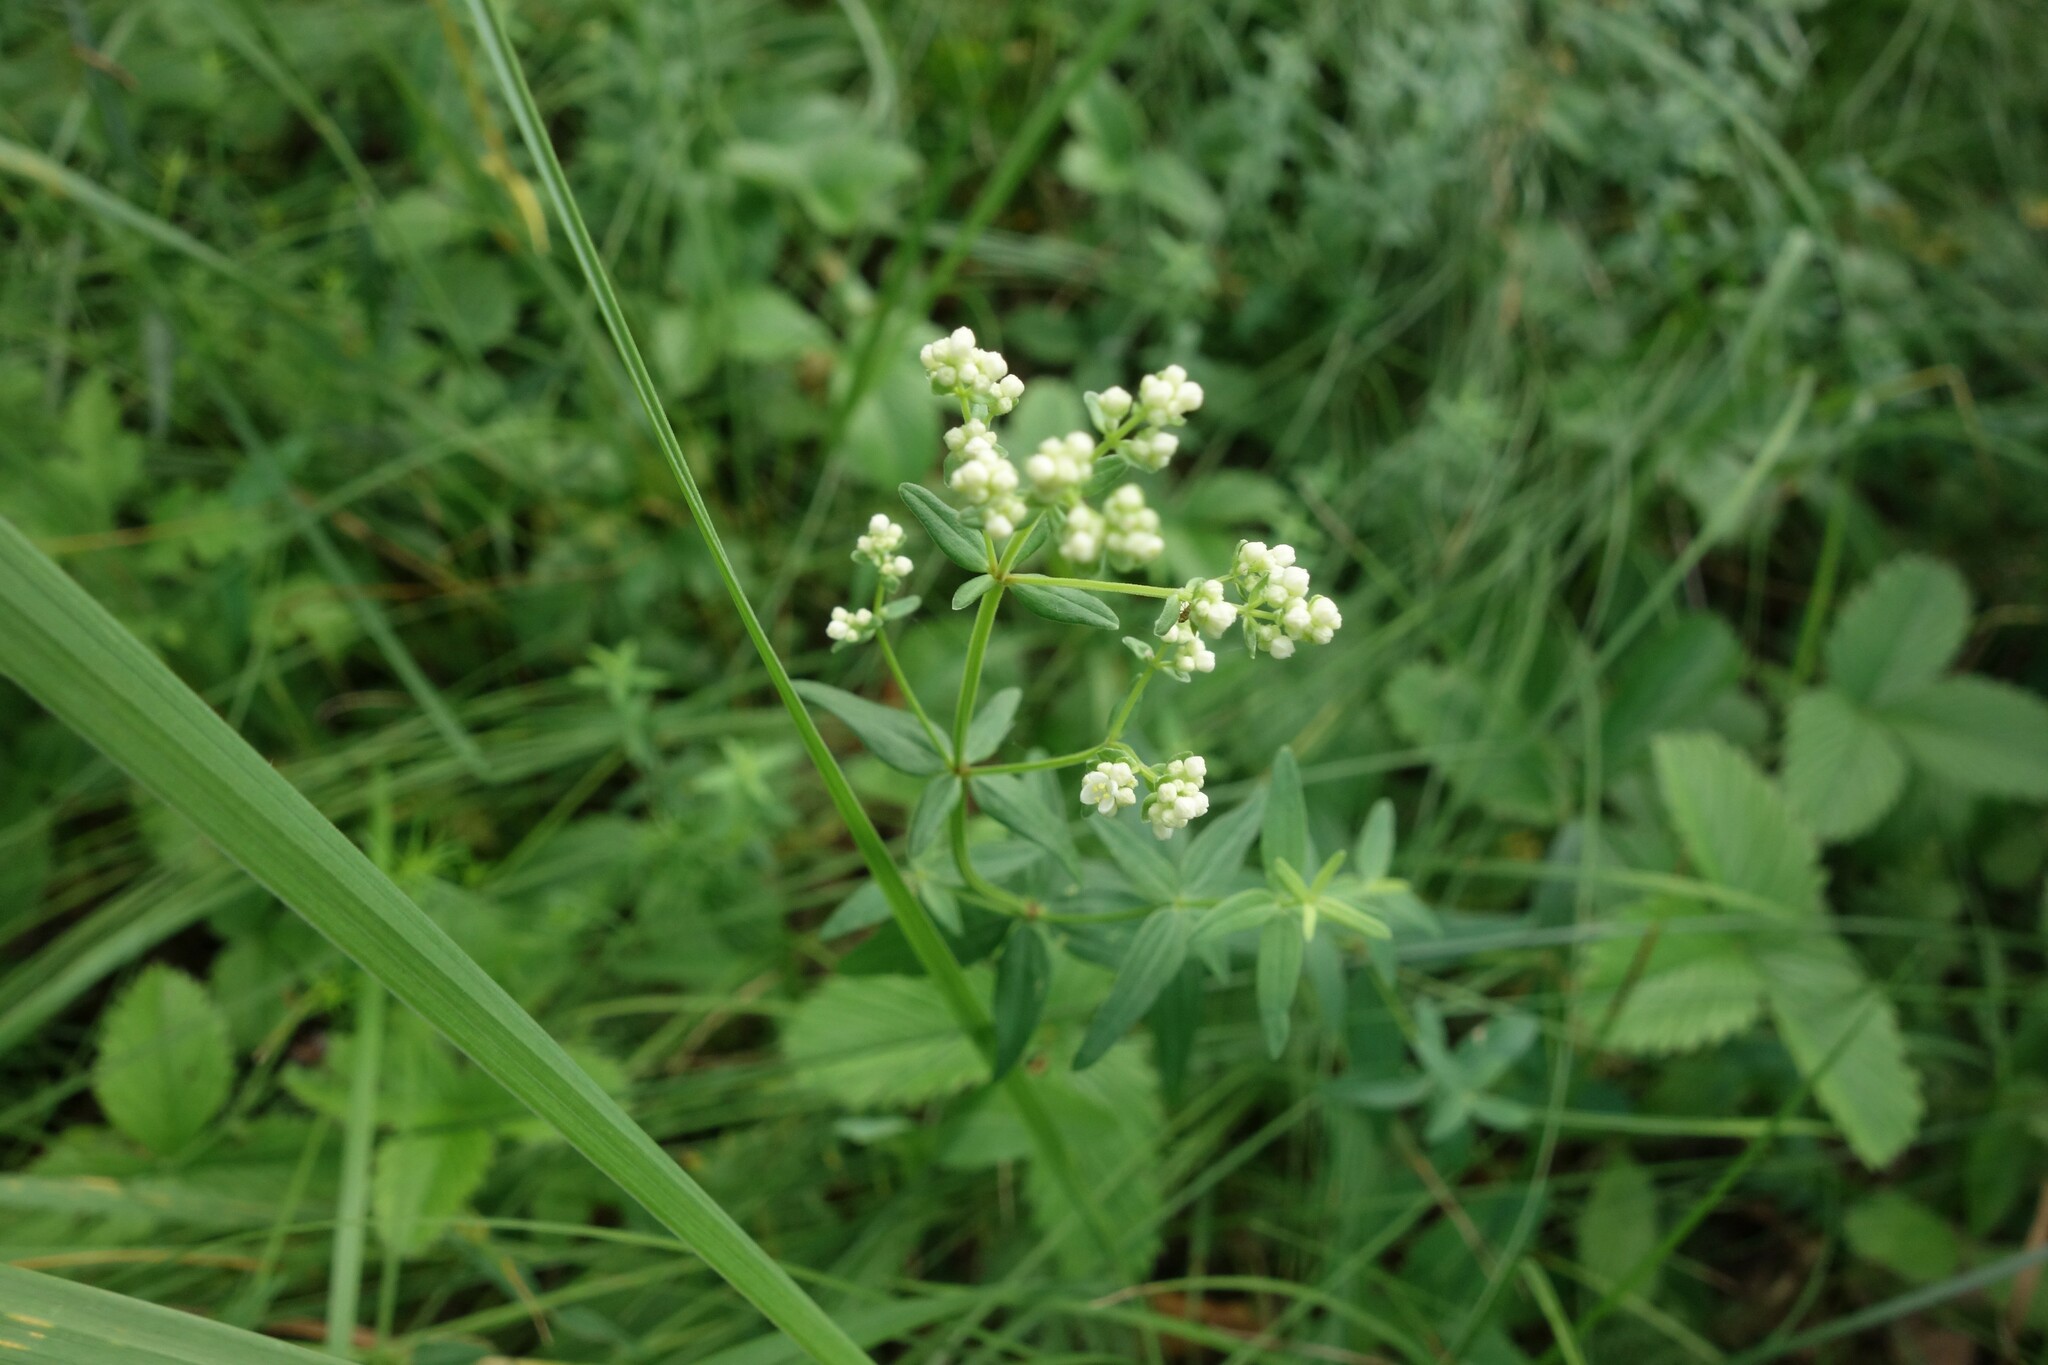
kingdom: Plantae
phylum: Tracheophyta
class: Magnoliopsida
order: Gentianales
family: Rubiaceae
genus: Galium
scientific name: Galium boreale
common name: Northern bedstraw
